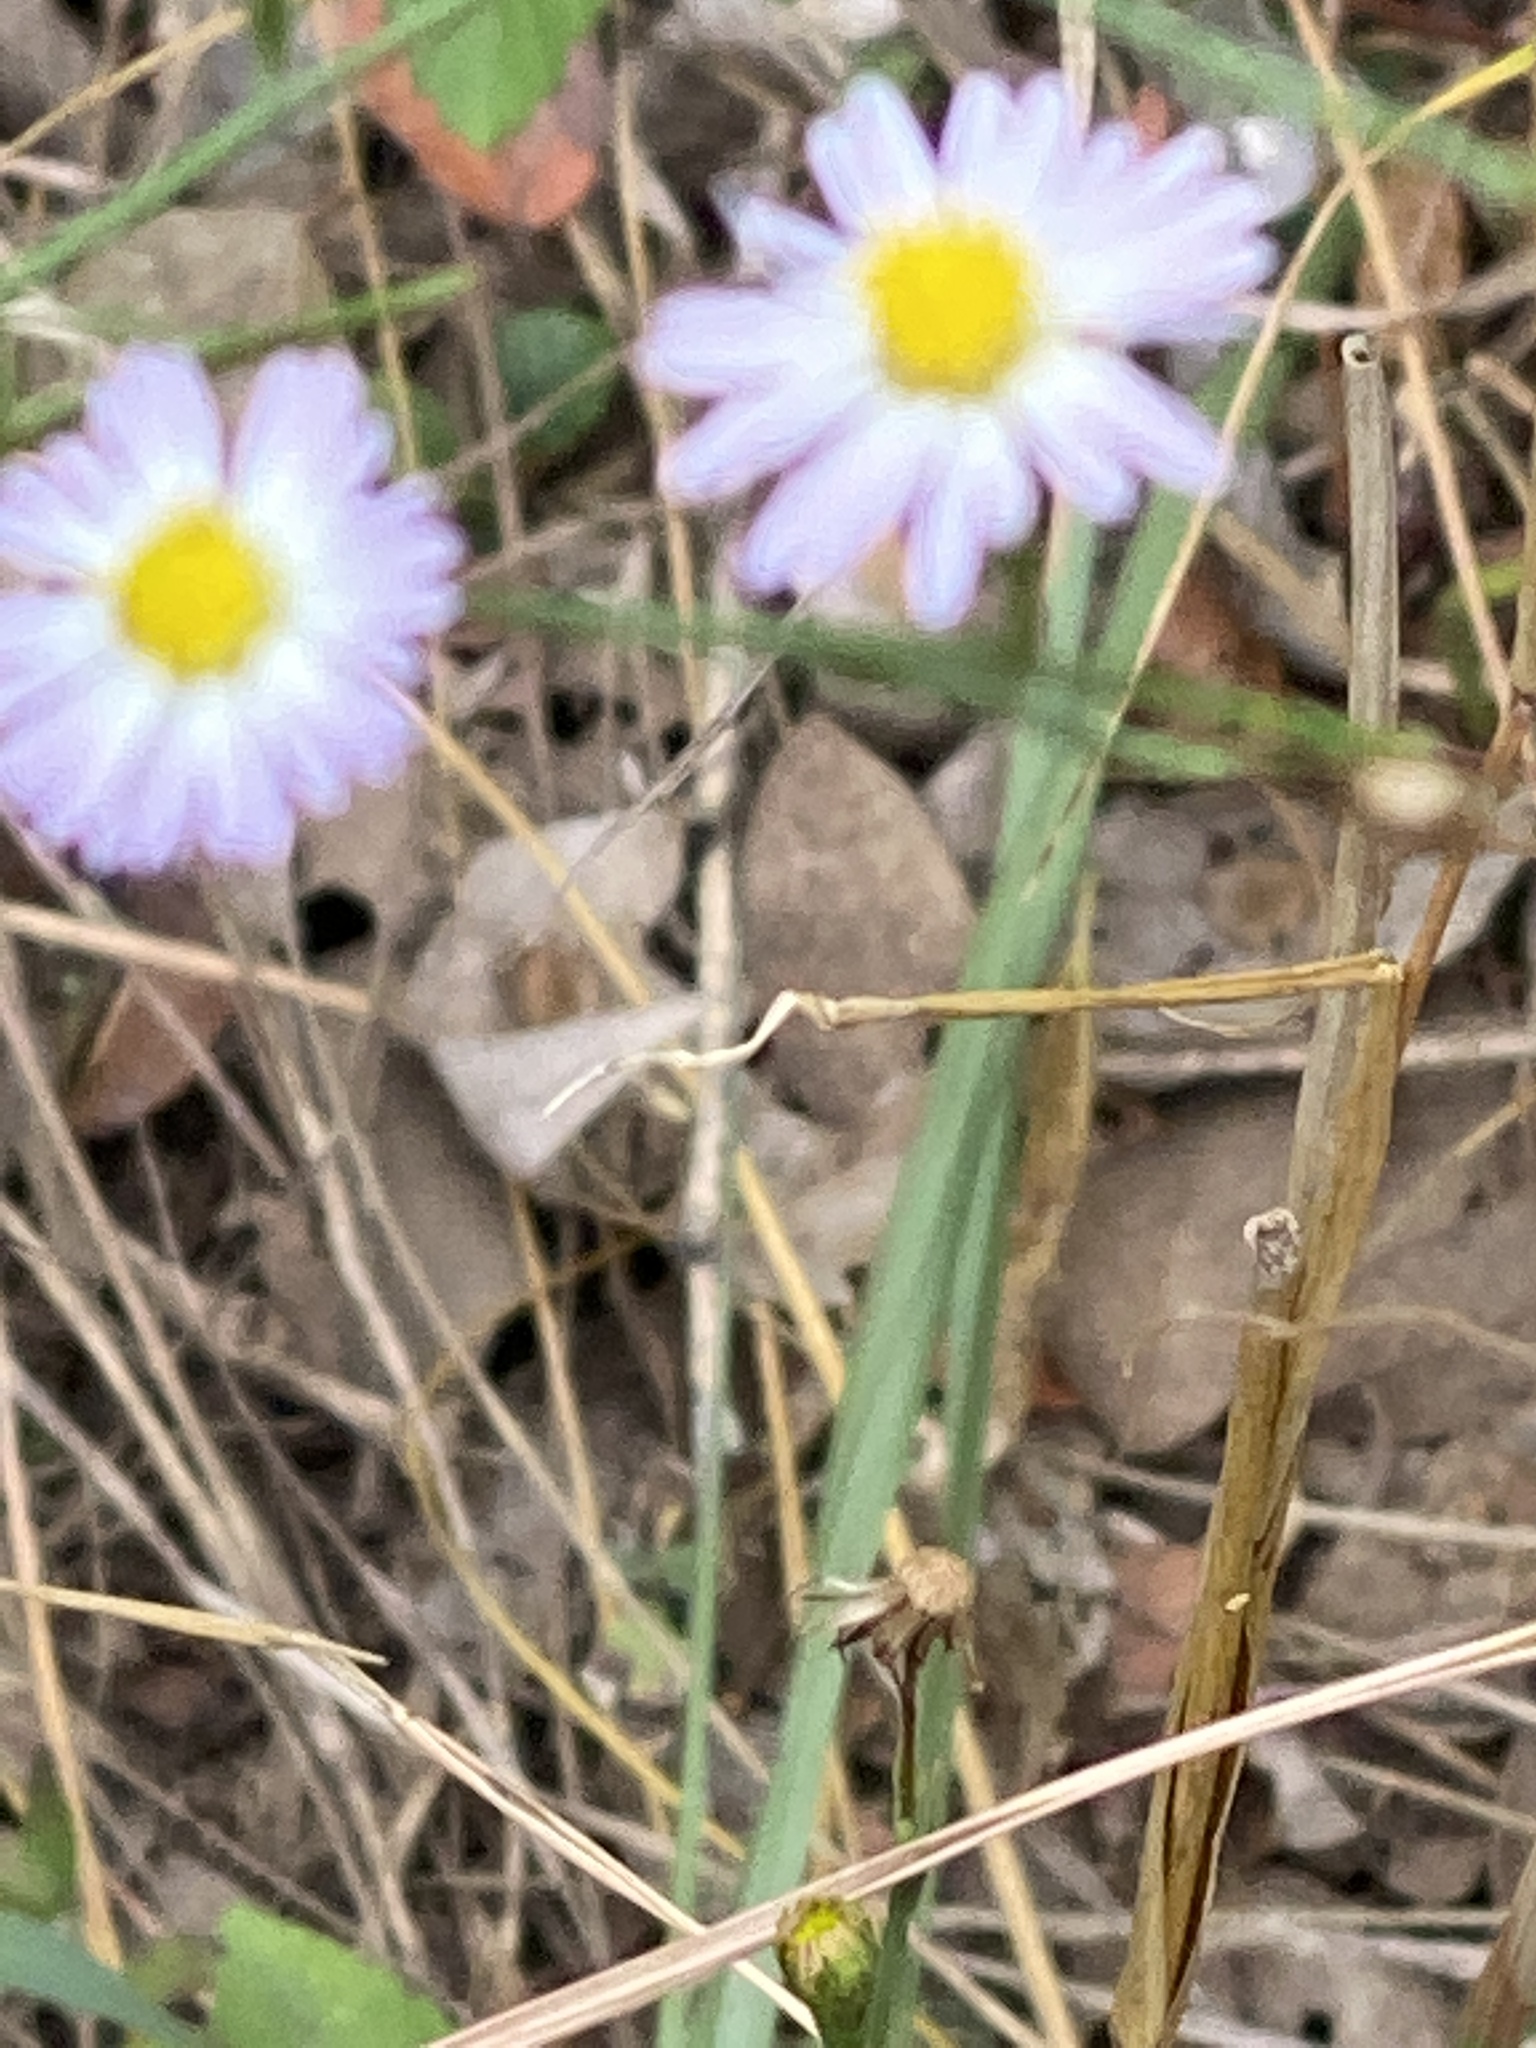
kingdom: Plantae
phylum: Tracheophyta
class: Magnoliopsida
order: Asterales
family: Asteraceae
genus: Symphyotrichum
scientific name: Symphyotrichum divaricatum
